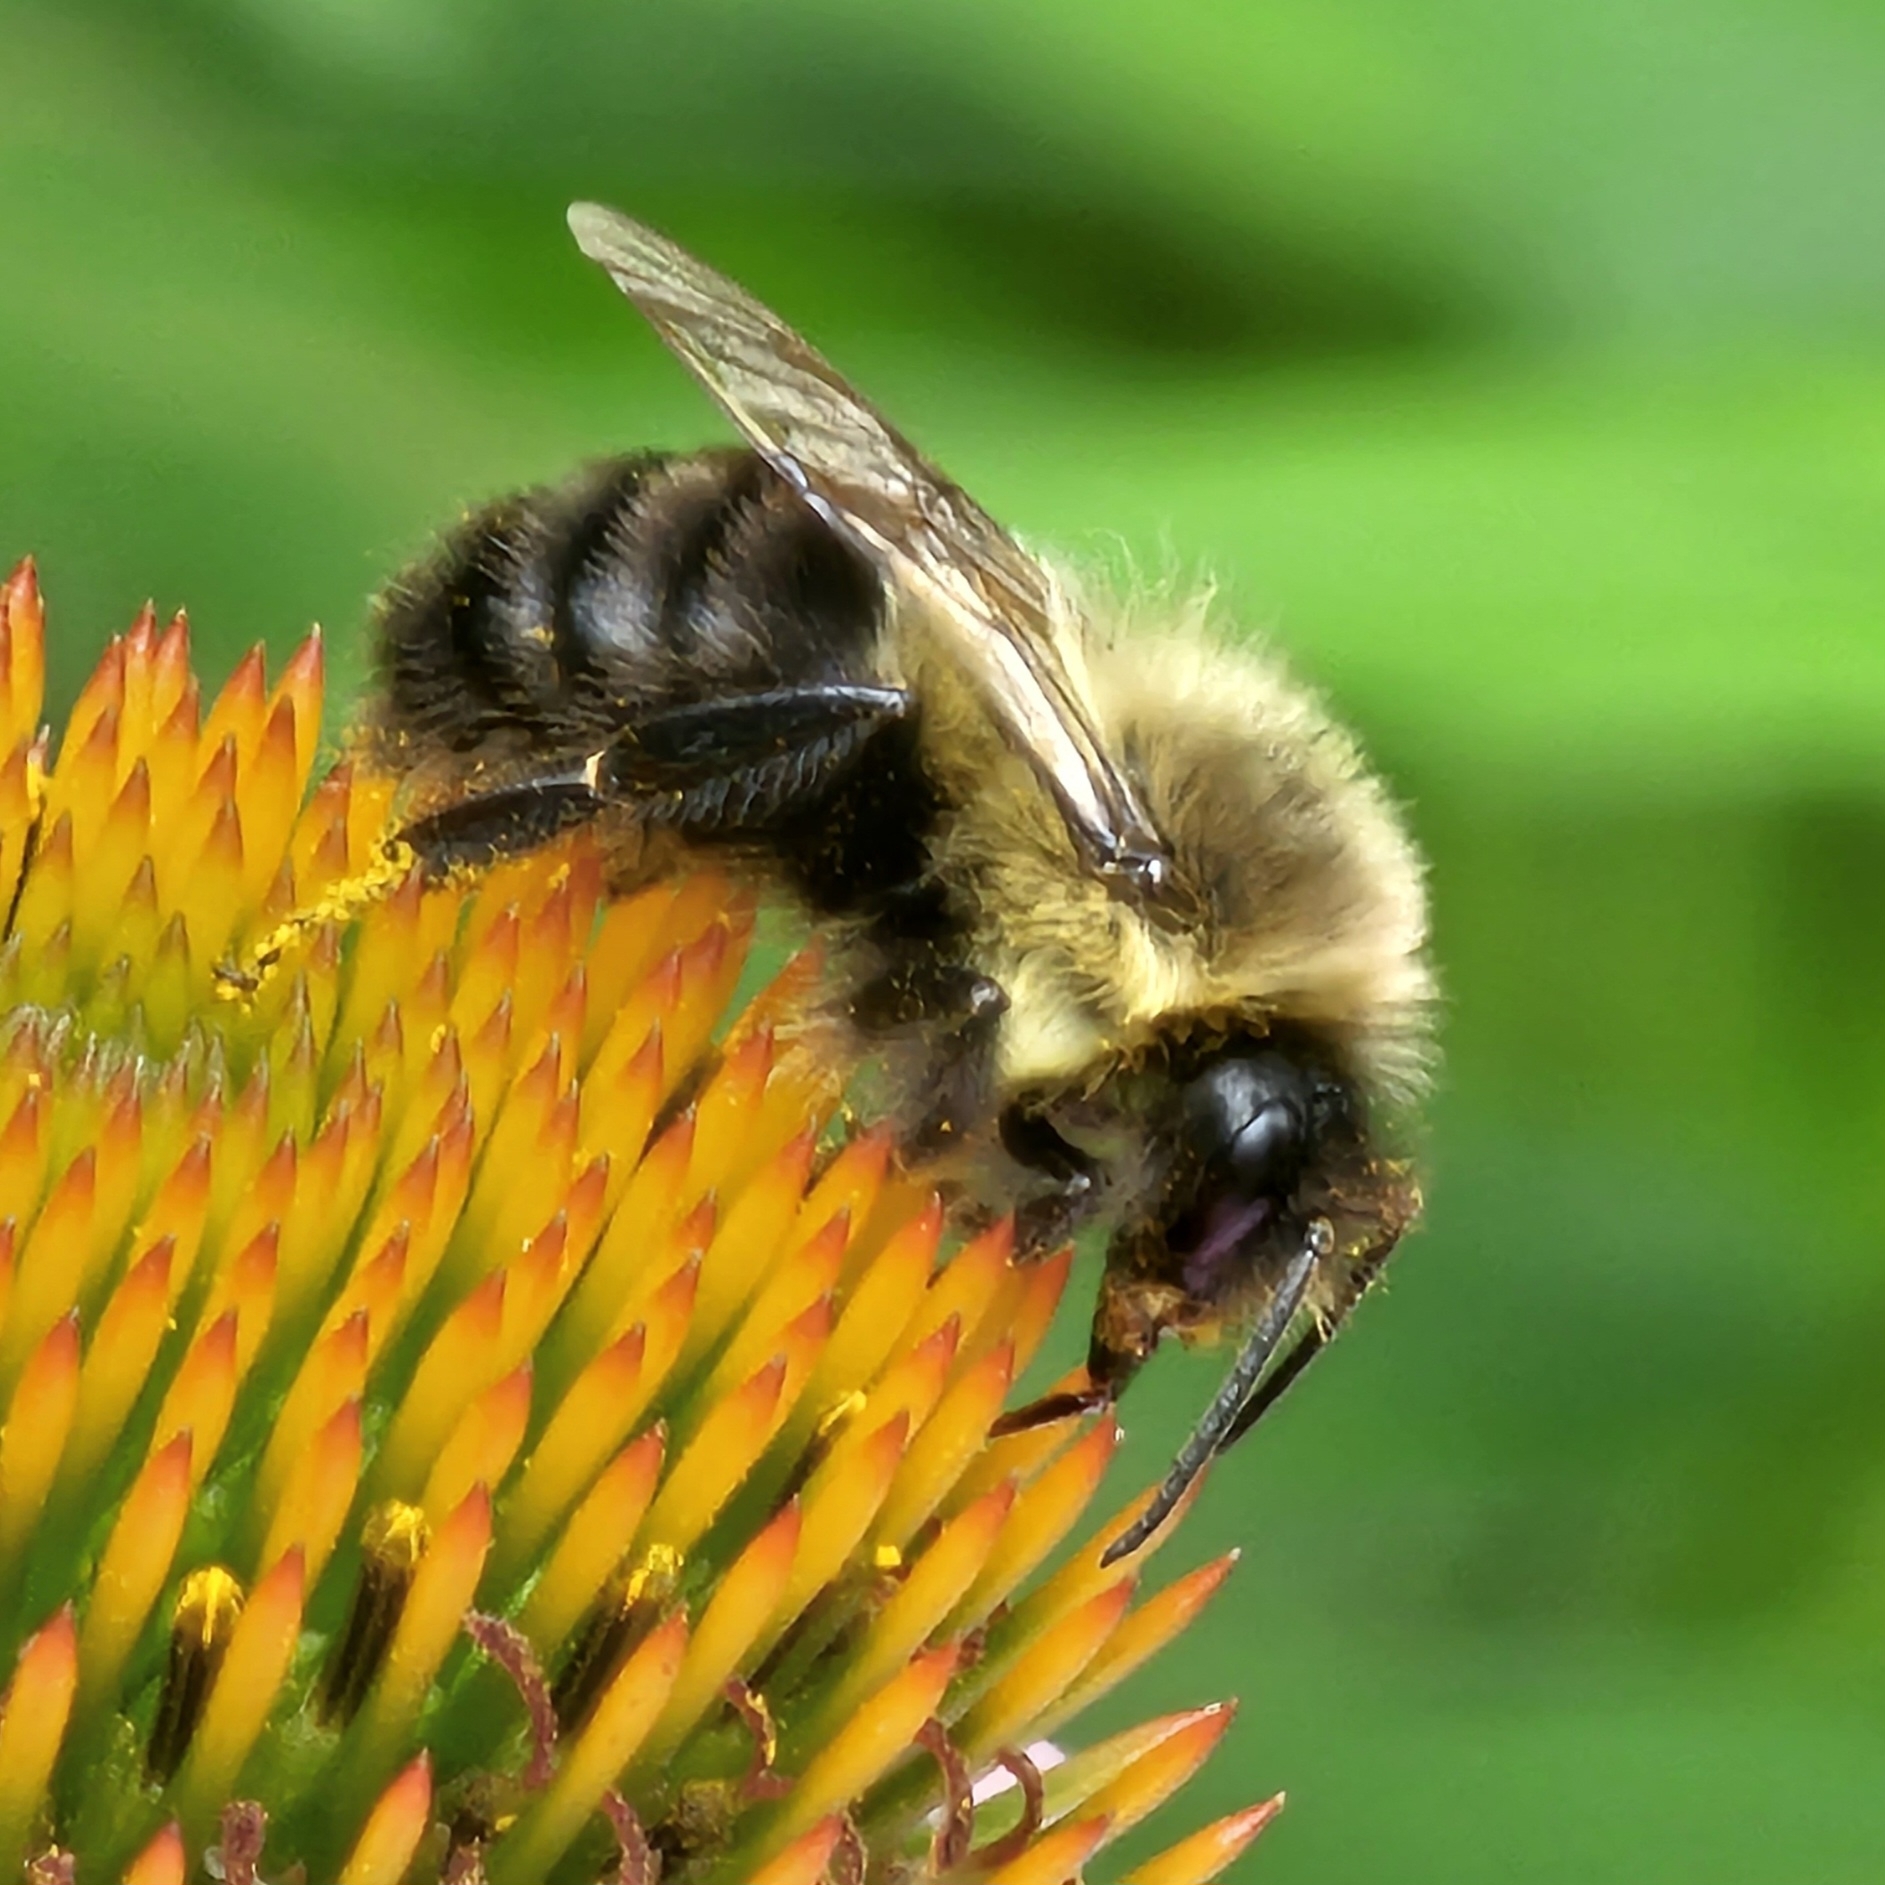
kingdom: Animalia
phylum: Arthropoda
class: Insecta
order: Hymenoptera
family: Apidae
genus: Bombus
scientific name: Bombus impatiens
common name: Common eastern bumble bee
